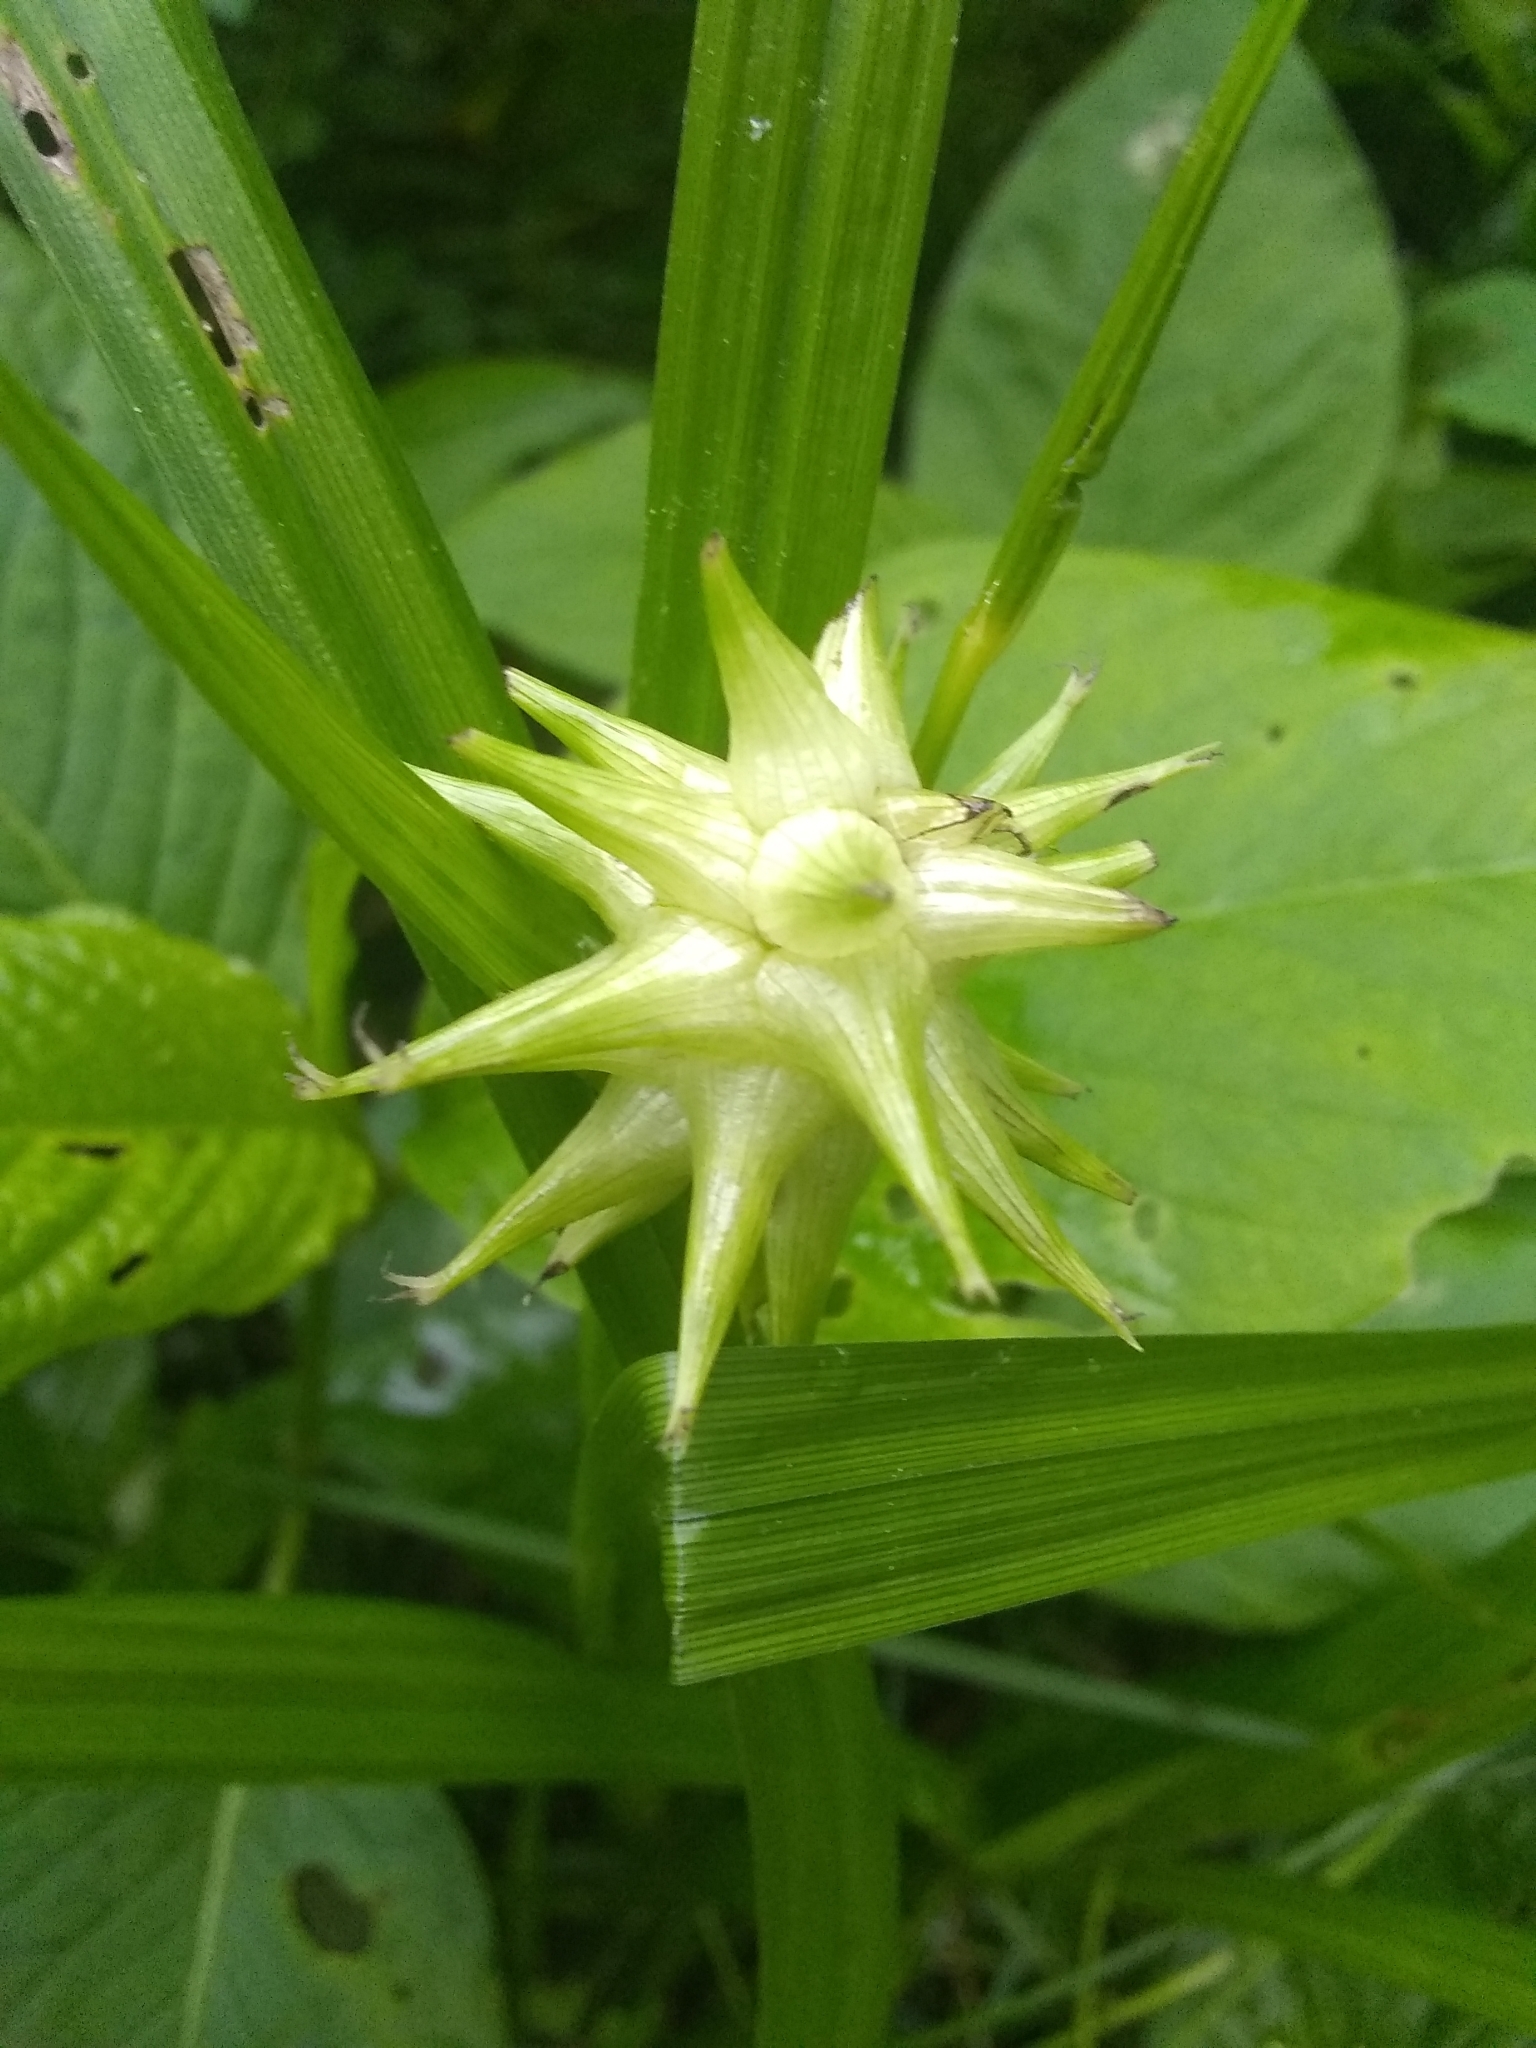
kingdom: Plantae
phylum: Tracheophyta
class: Liliopsida
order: Poales
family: Cyperaceae
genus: Carex
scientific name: Carex grayi
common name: Asa gray's sedge
